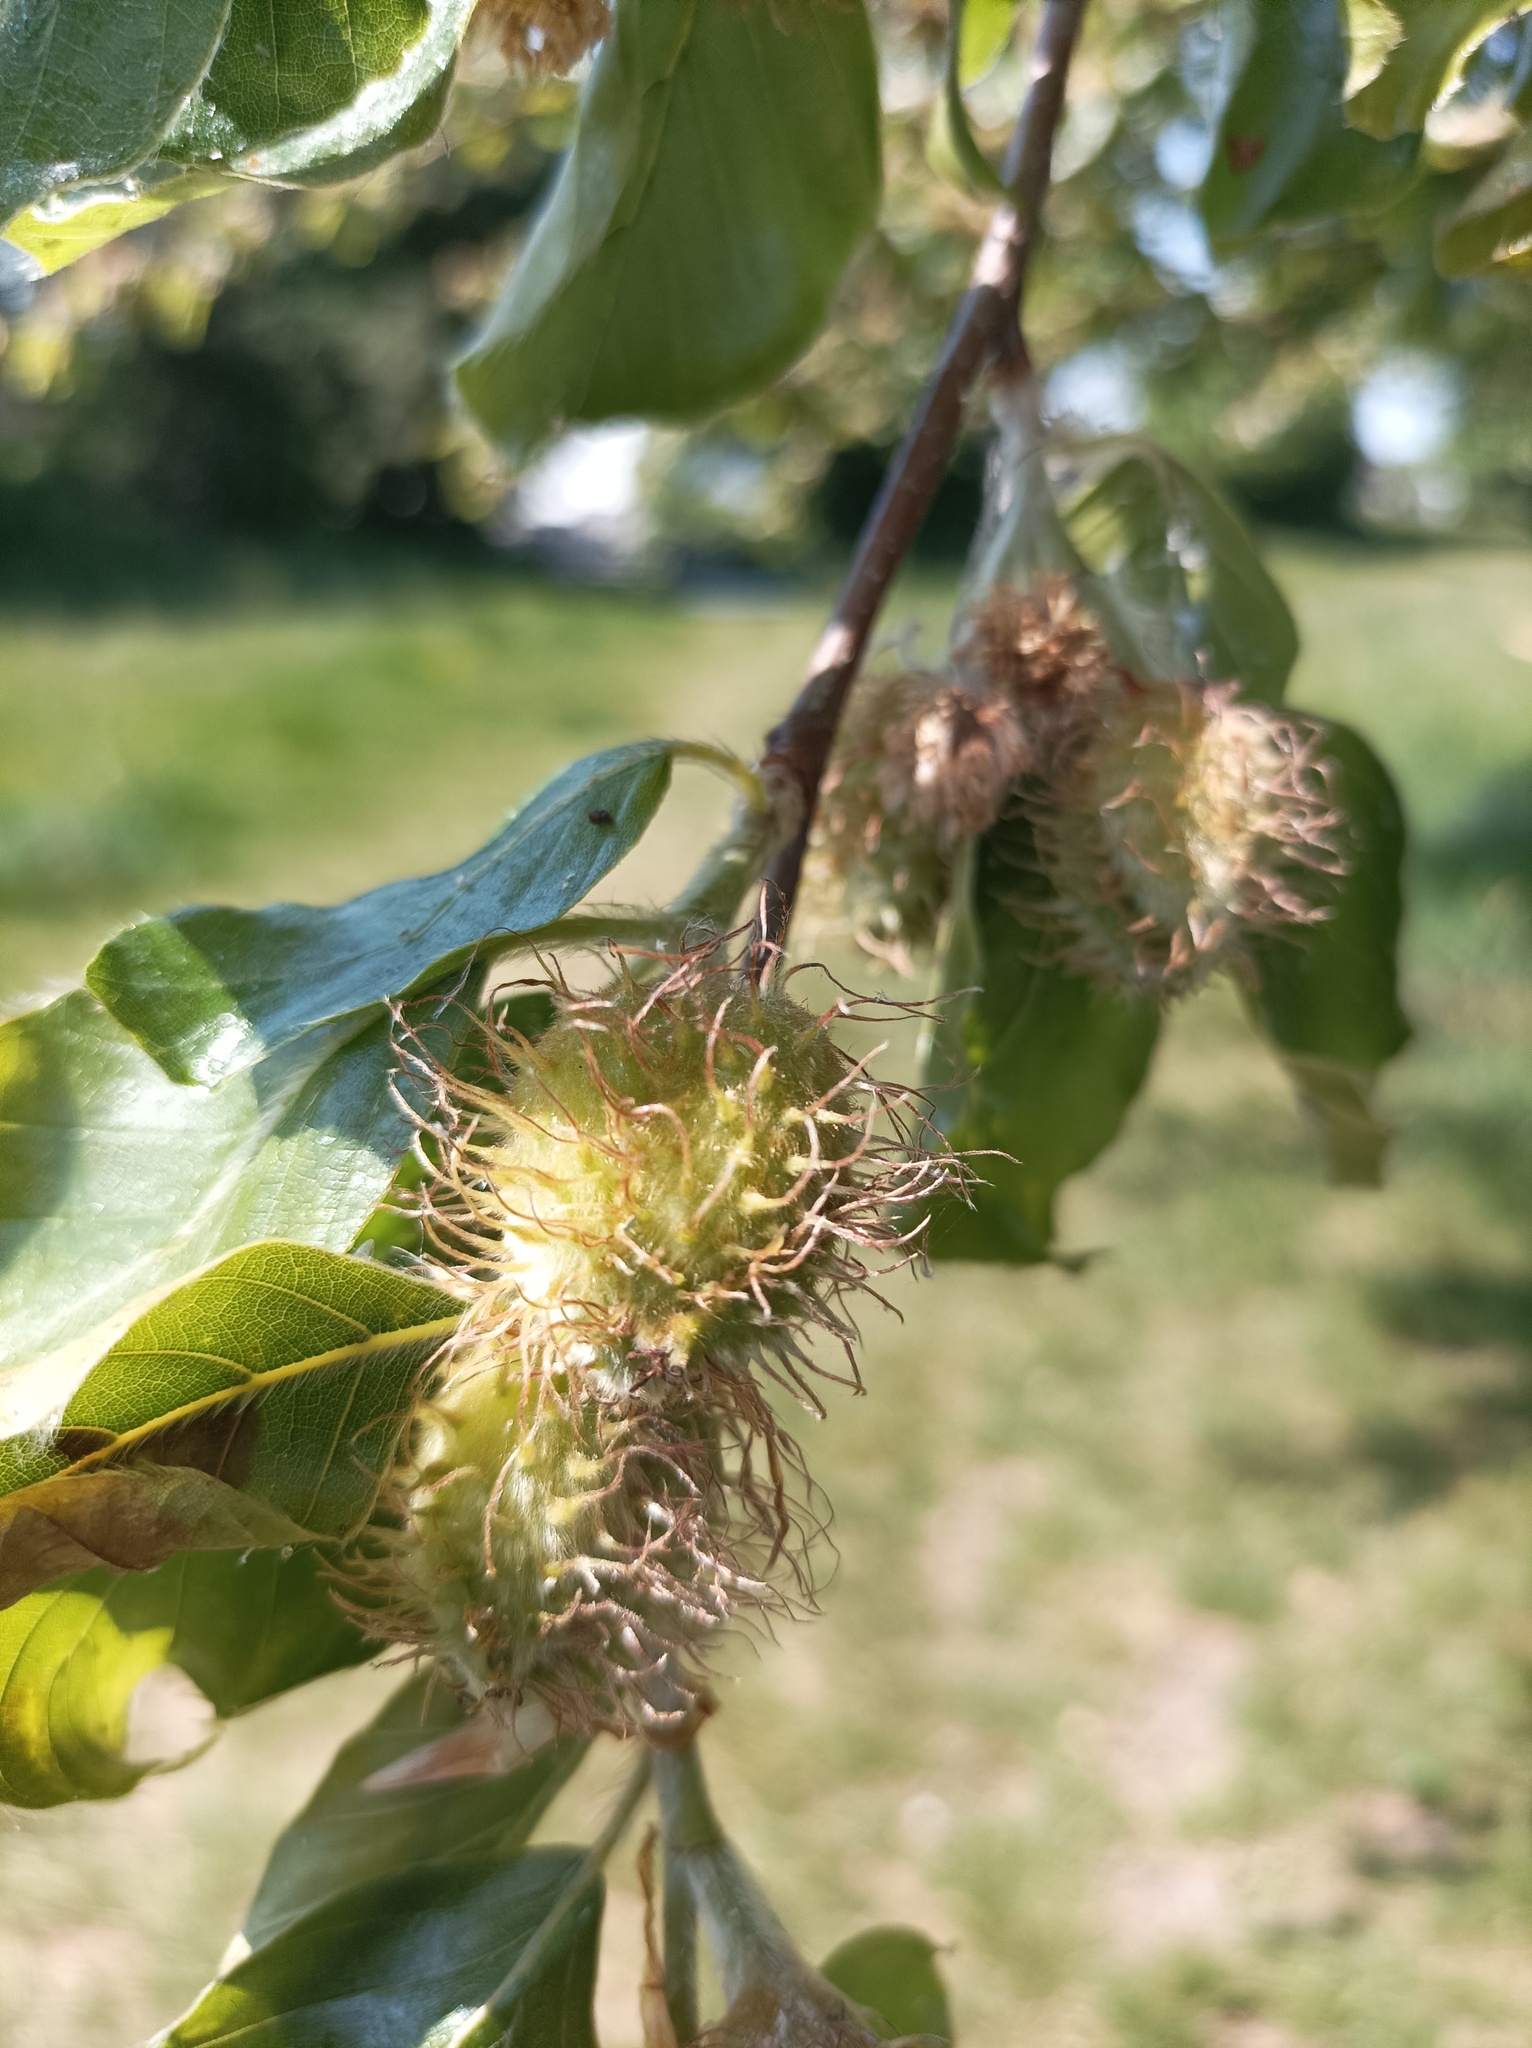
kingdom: Plantae
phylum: Tracheophyta
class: Magnoliopsida
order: Fagales
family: Fagaceae
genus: Fagus
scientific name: Fagus sylvatica
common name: Beech
